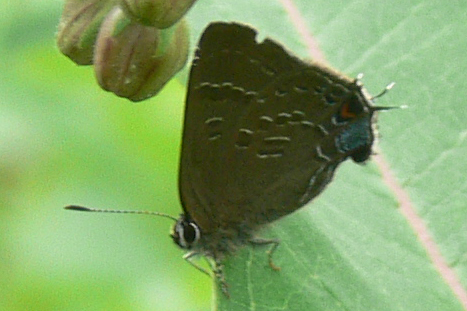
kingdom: Animalia
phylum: Arthropoda
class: Insecta
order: Lepidoptera
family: Lycaenidae
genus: Satyrium
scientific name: Satyrium calanus
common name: Banded hairstreak
